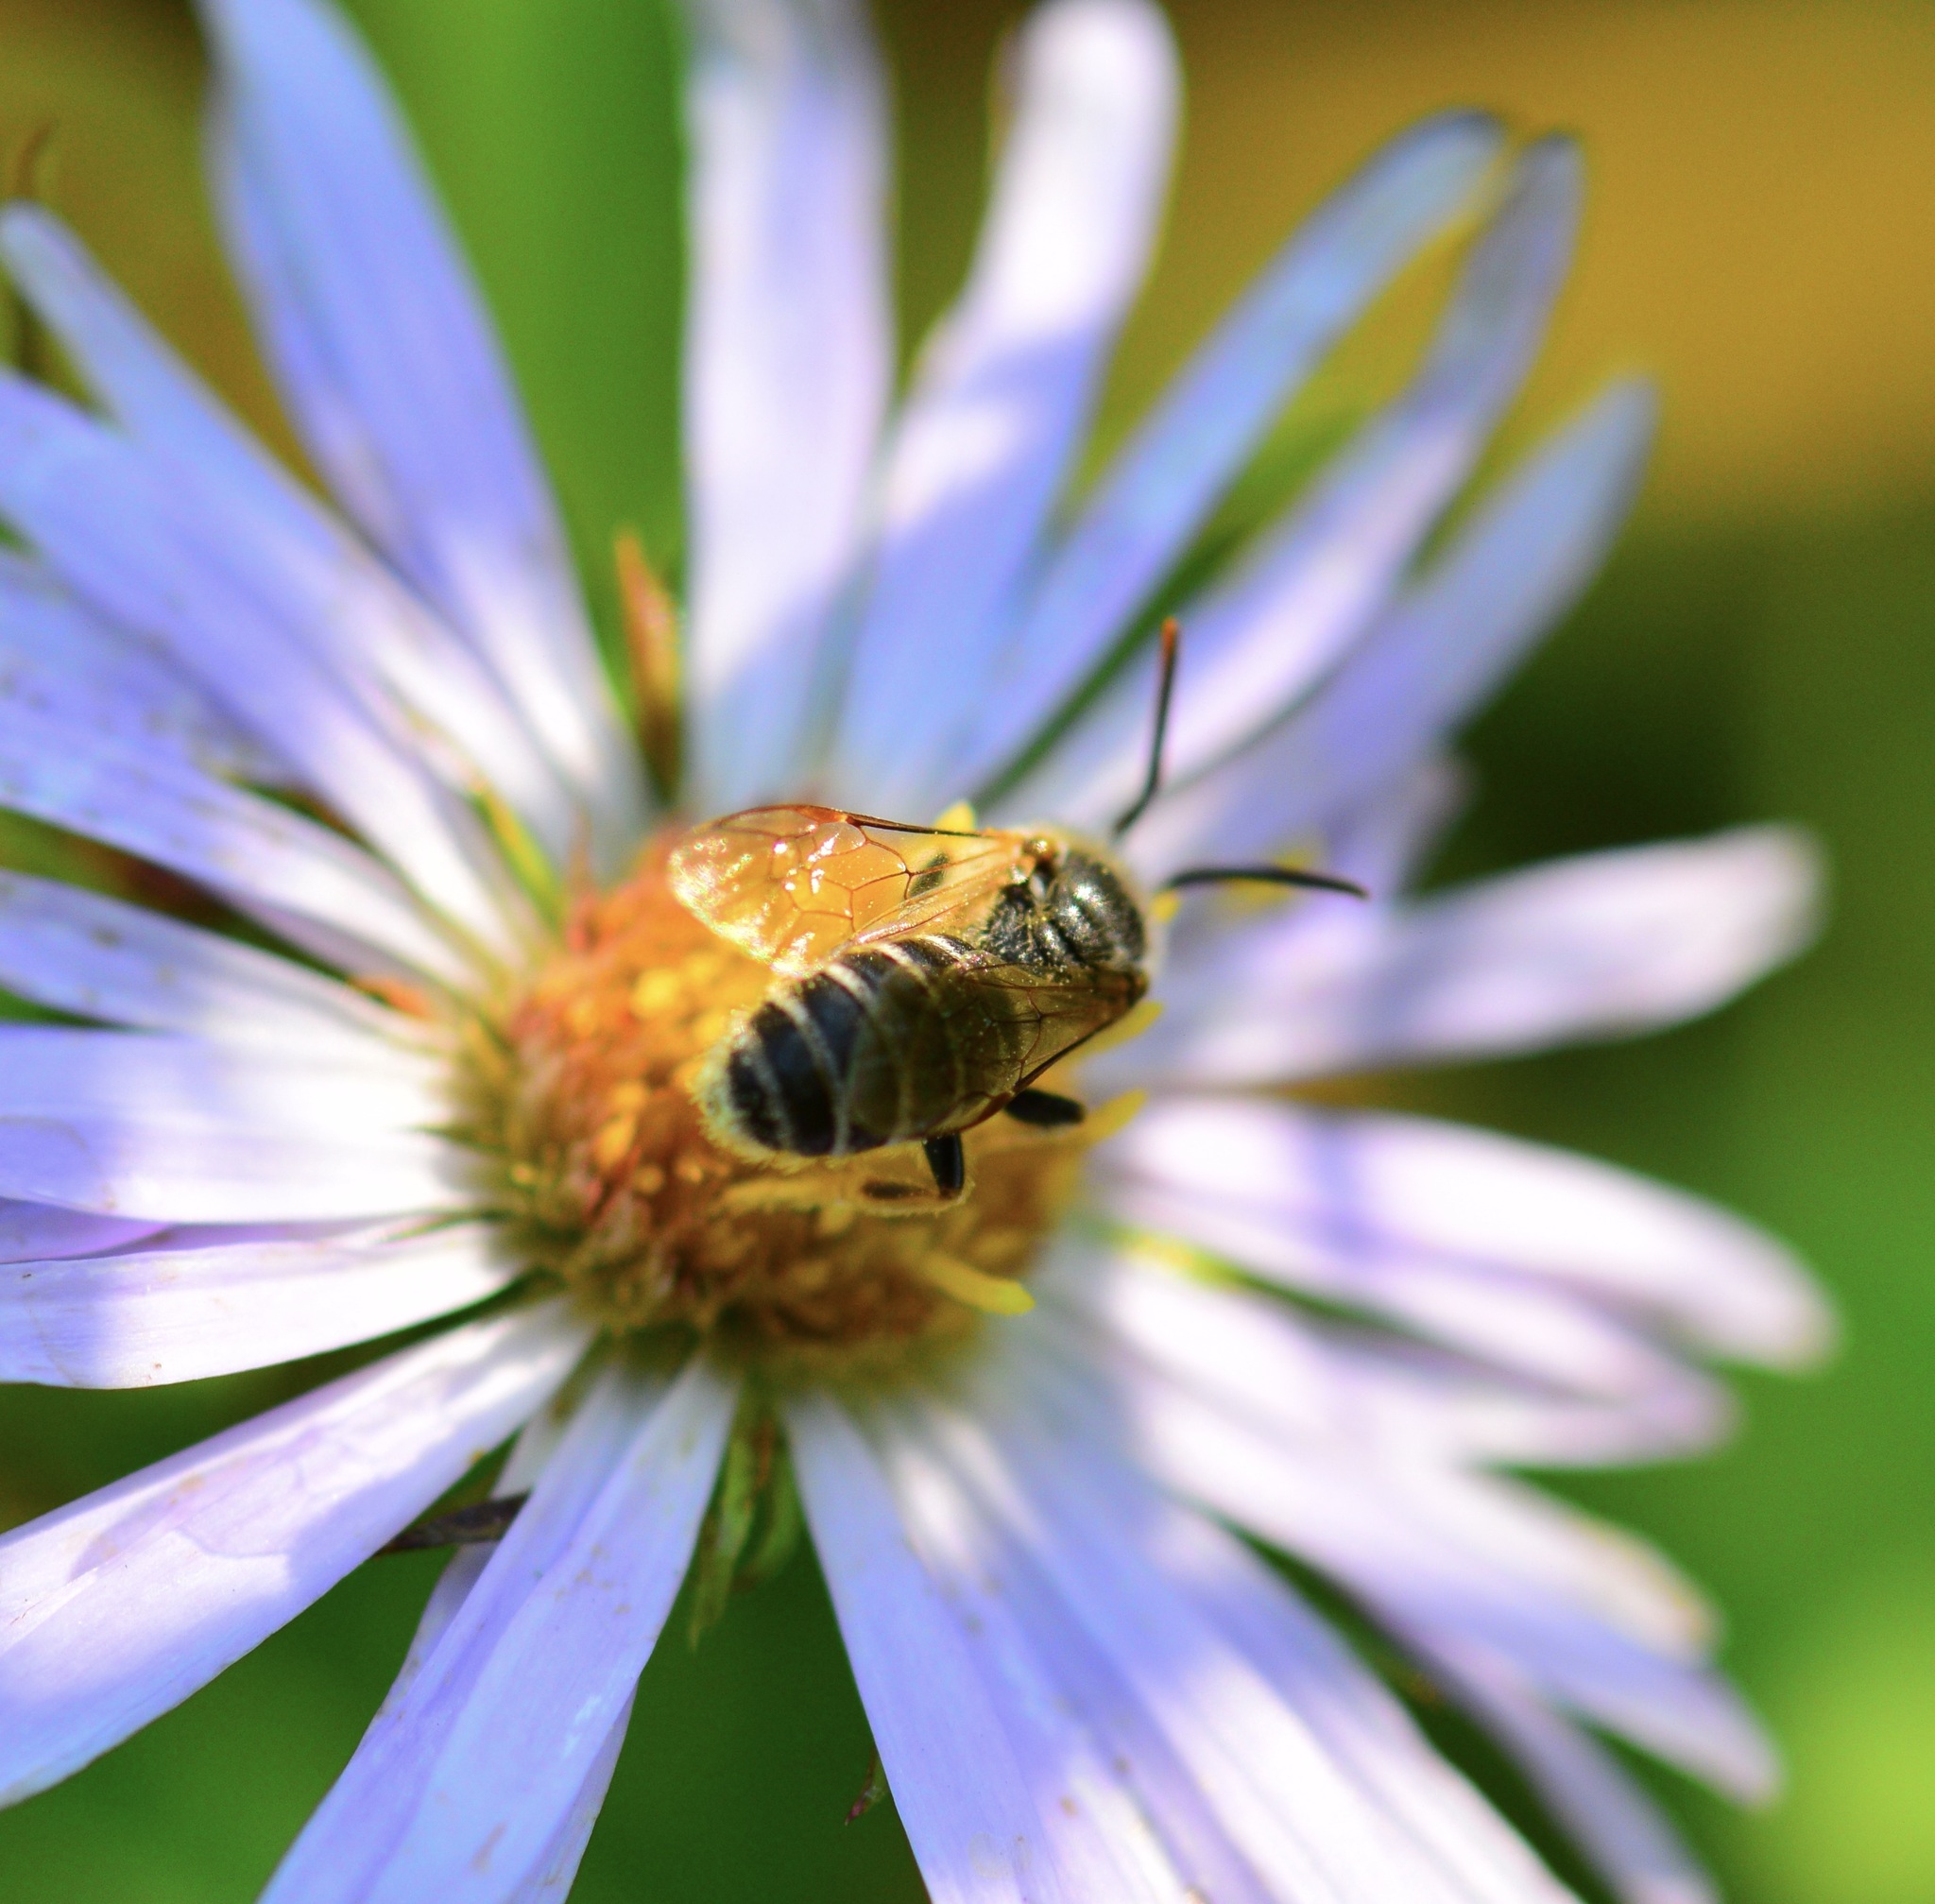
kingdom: Animalia
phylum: Arthropoda
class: Insecta
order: Hymenoptera
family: Halictidae
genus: Halictus
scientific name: Halictus ligatus
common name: Ligated furrow bee
